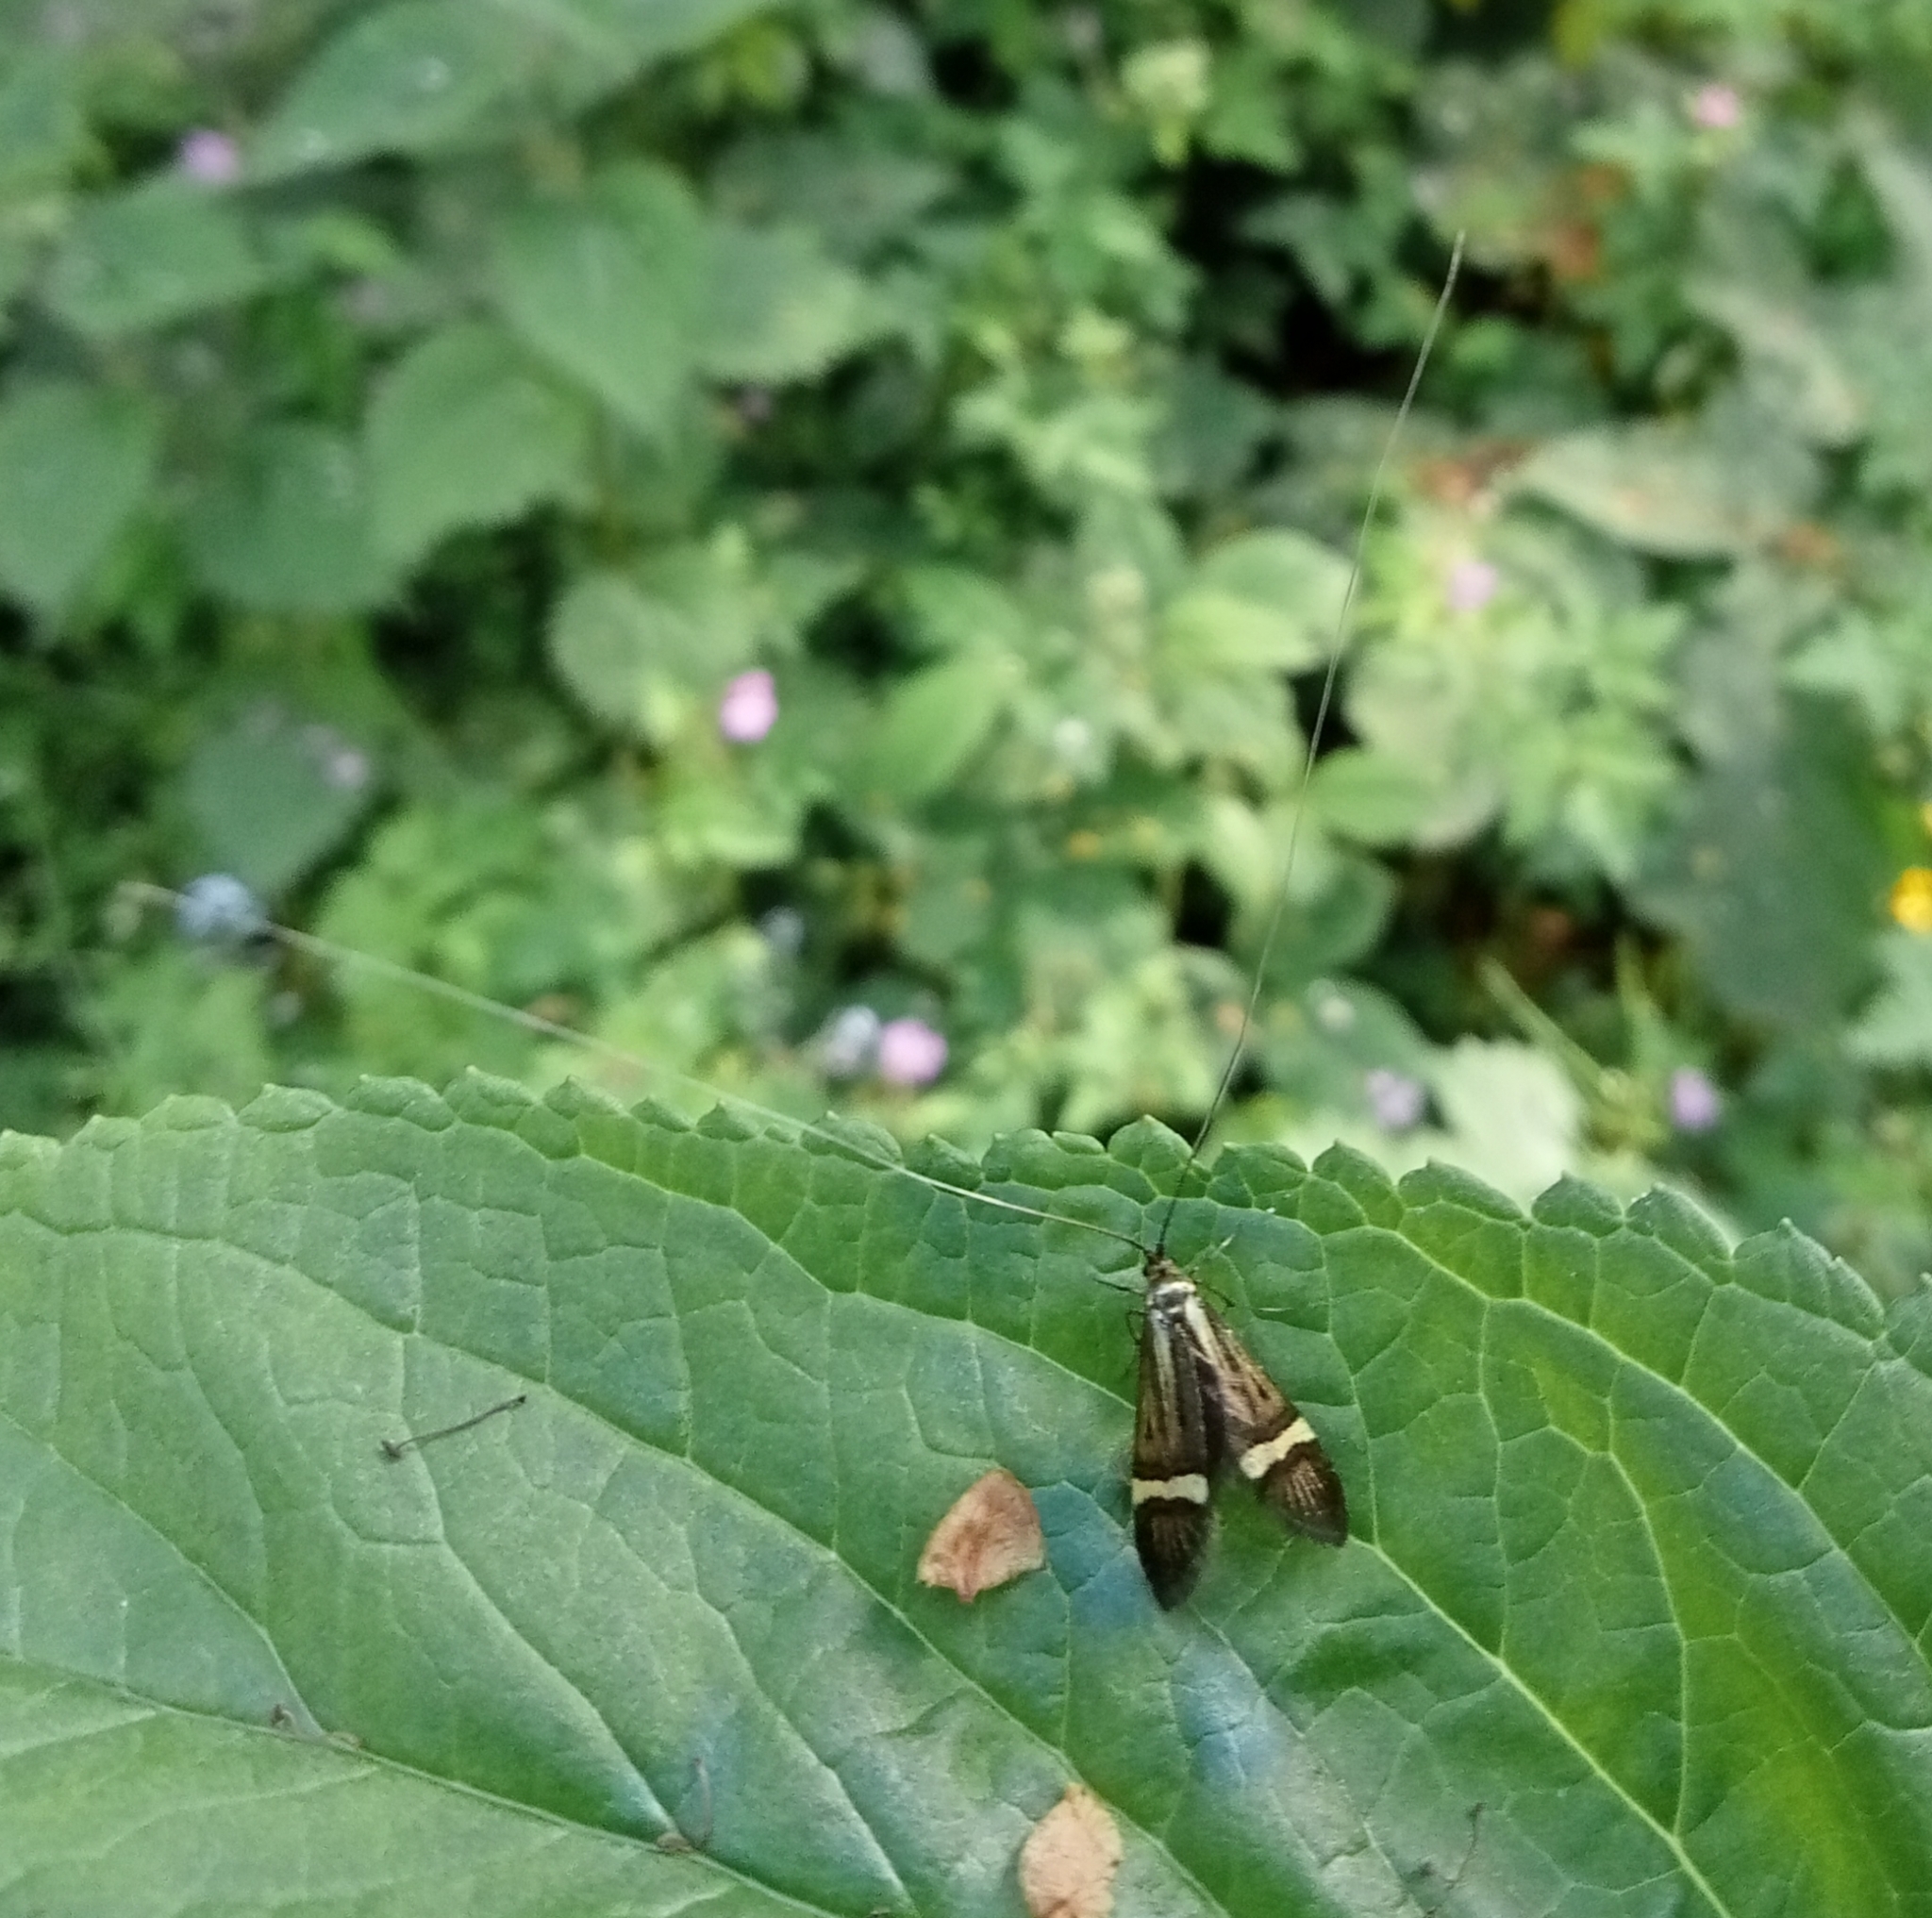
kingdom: Animalia
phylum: Arthropoda
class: Insecta
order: Lepidoptera
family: Adelidae
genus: Nemophora
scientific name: Nemophora degeerella
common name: Yellow-barred long-horn
